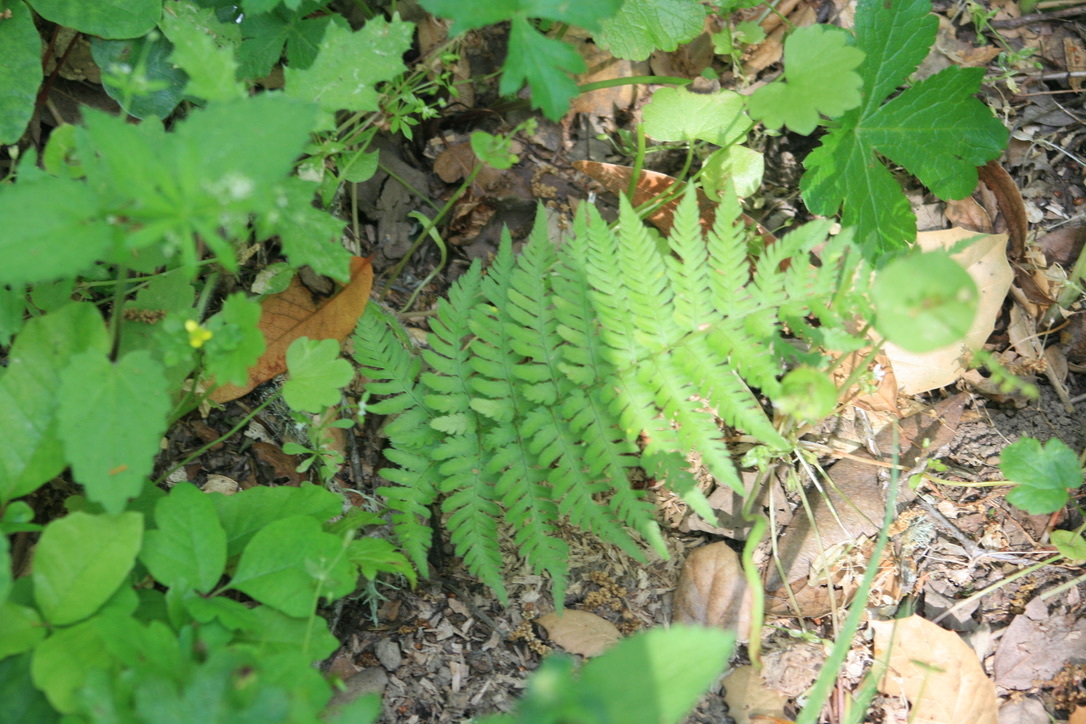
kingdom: Plantae
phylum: Tracheophyta
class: Polypodiopsida
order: Polypodiales
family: Dryopteridaceae
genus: Dryopteris
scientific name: Dryopteris arguta
